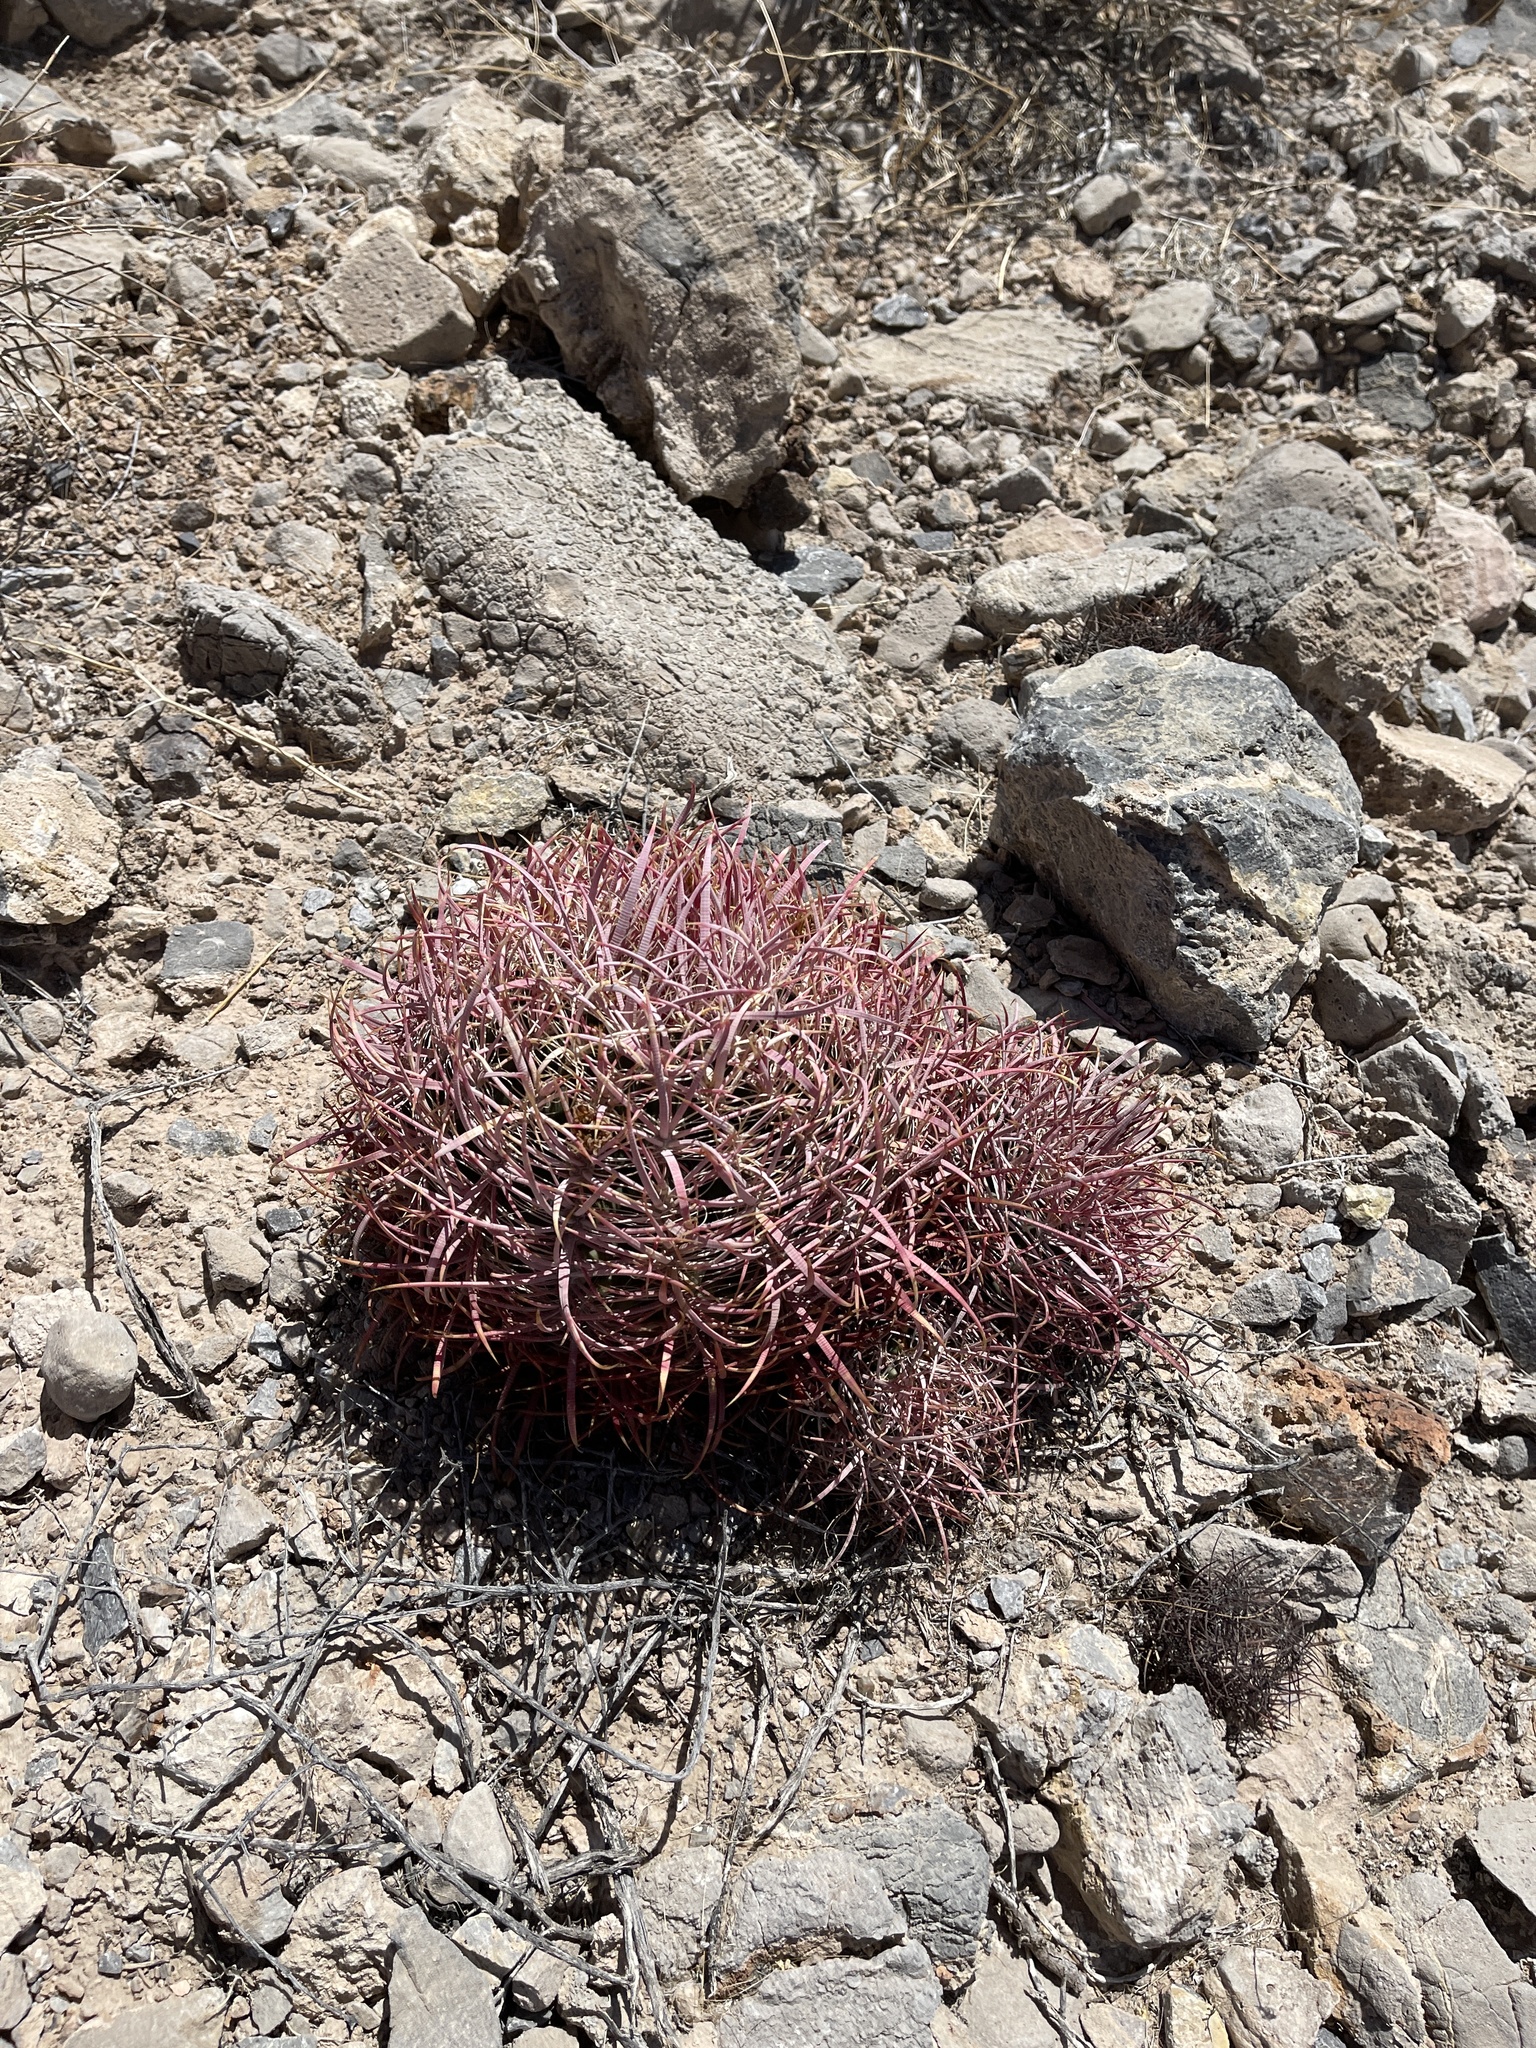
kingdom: Plantae
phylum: Tracheophyta
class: Magnoliopsida
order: Caryophyllales
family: Cactaceae
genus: Ferocactus
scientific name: Ferocactus cylindraceus
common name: California barrel cactus
